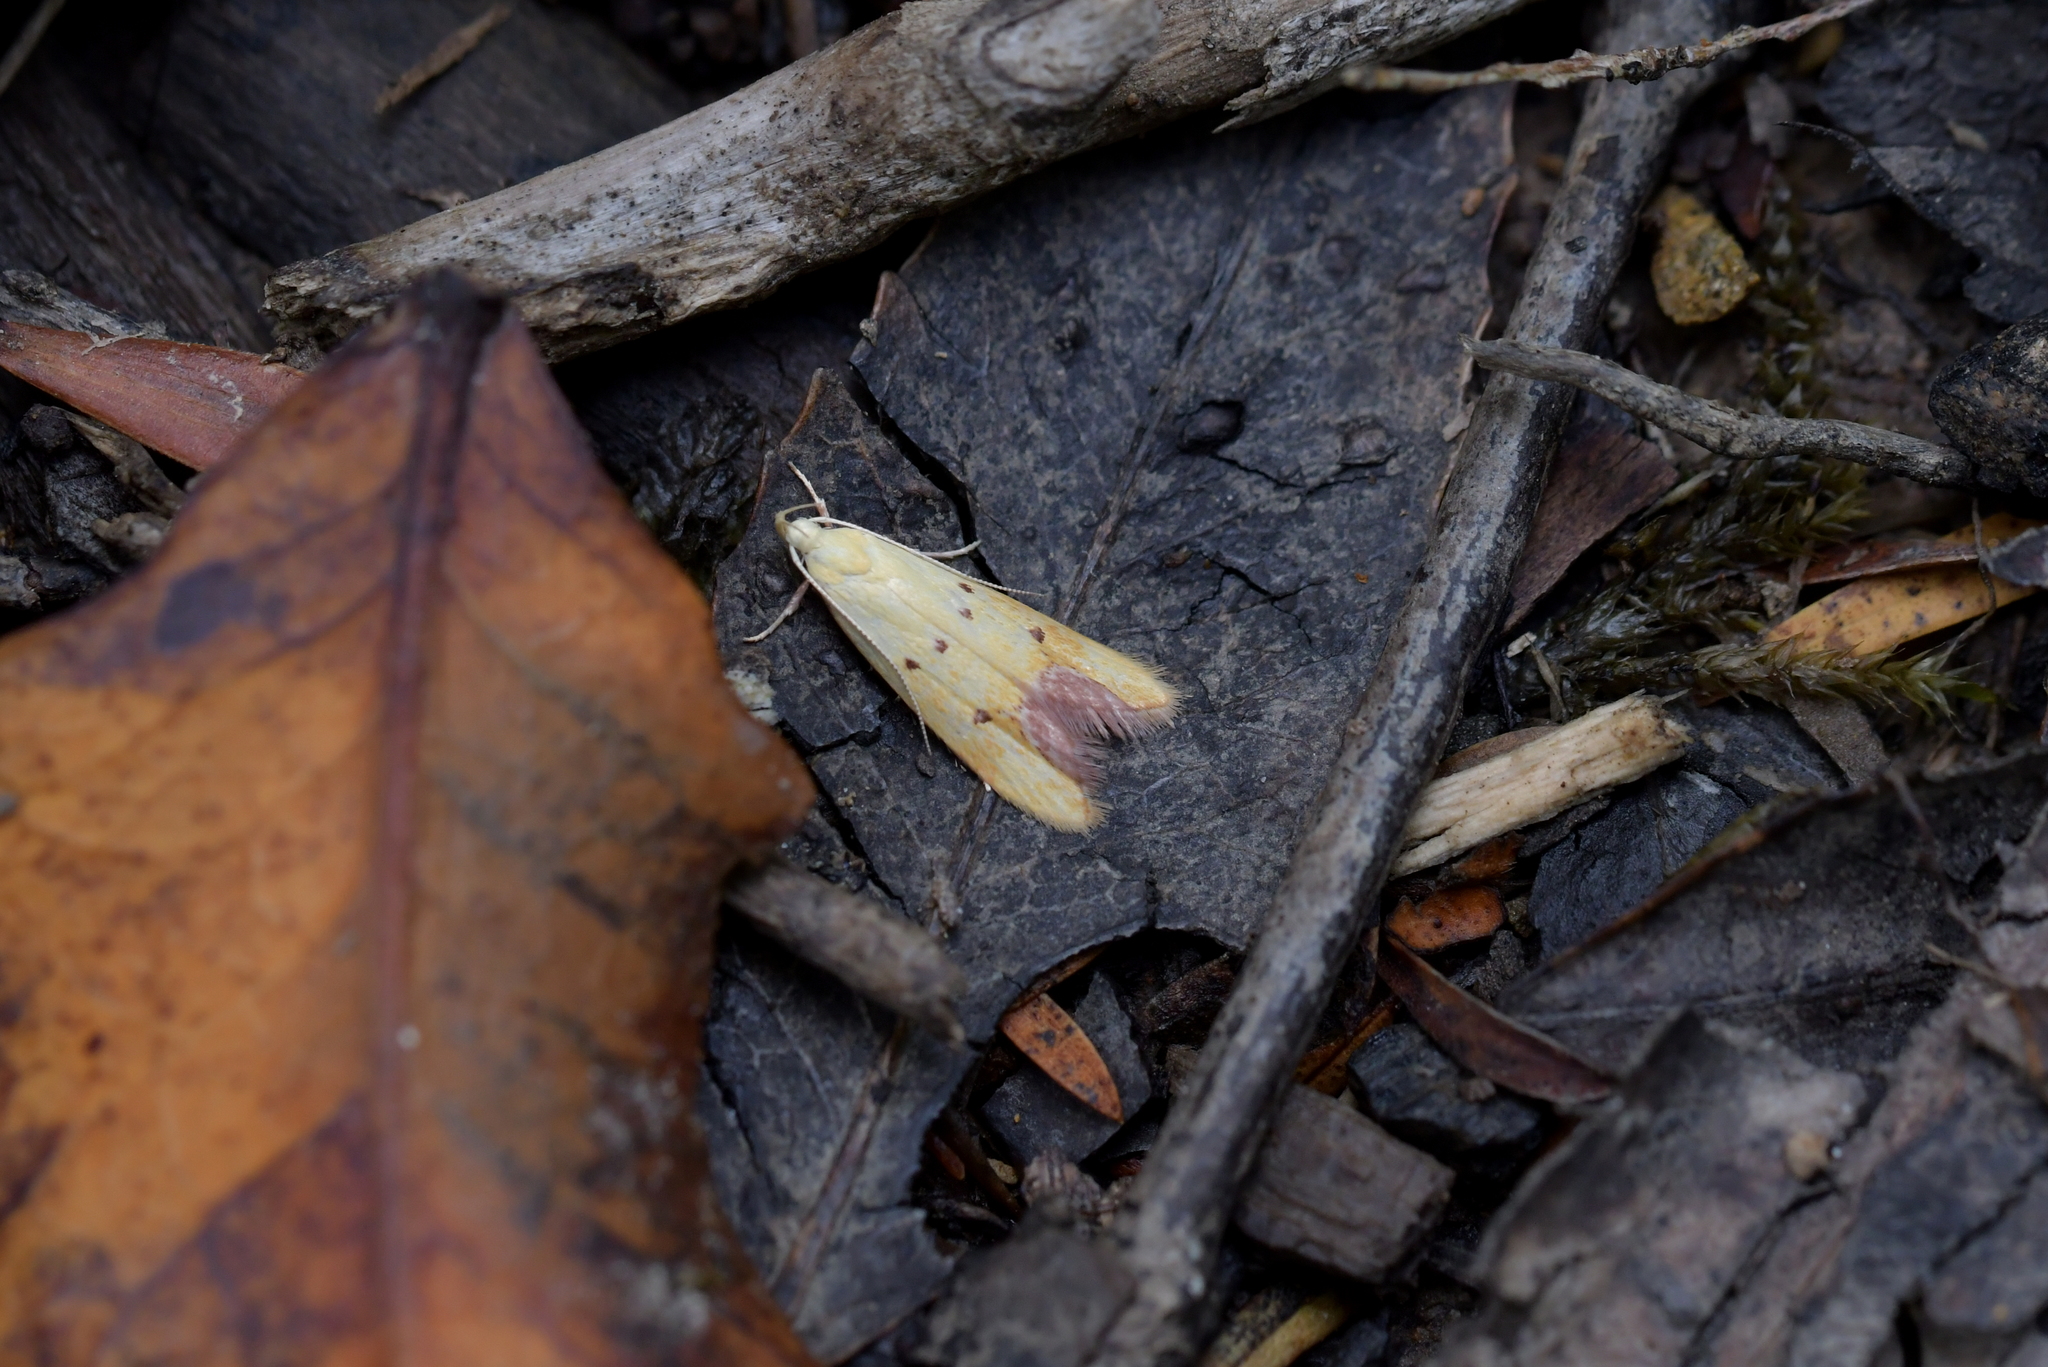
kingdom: Animalia
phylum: Arthropoda
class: Insecta
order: Lepidoptera
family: Oecophoridae
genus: Gymnobathra
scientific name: Gymnobathra flavidella
